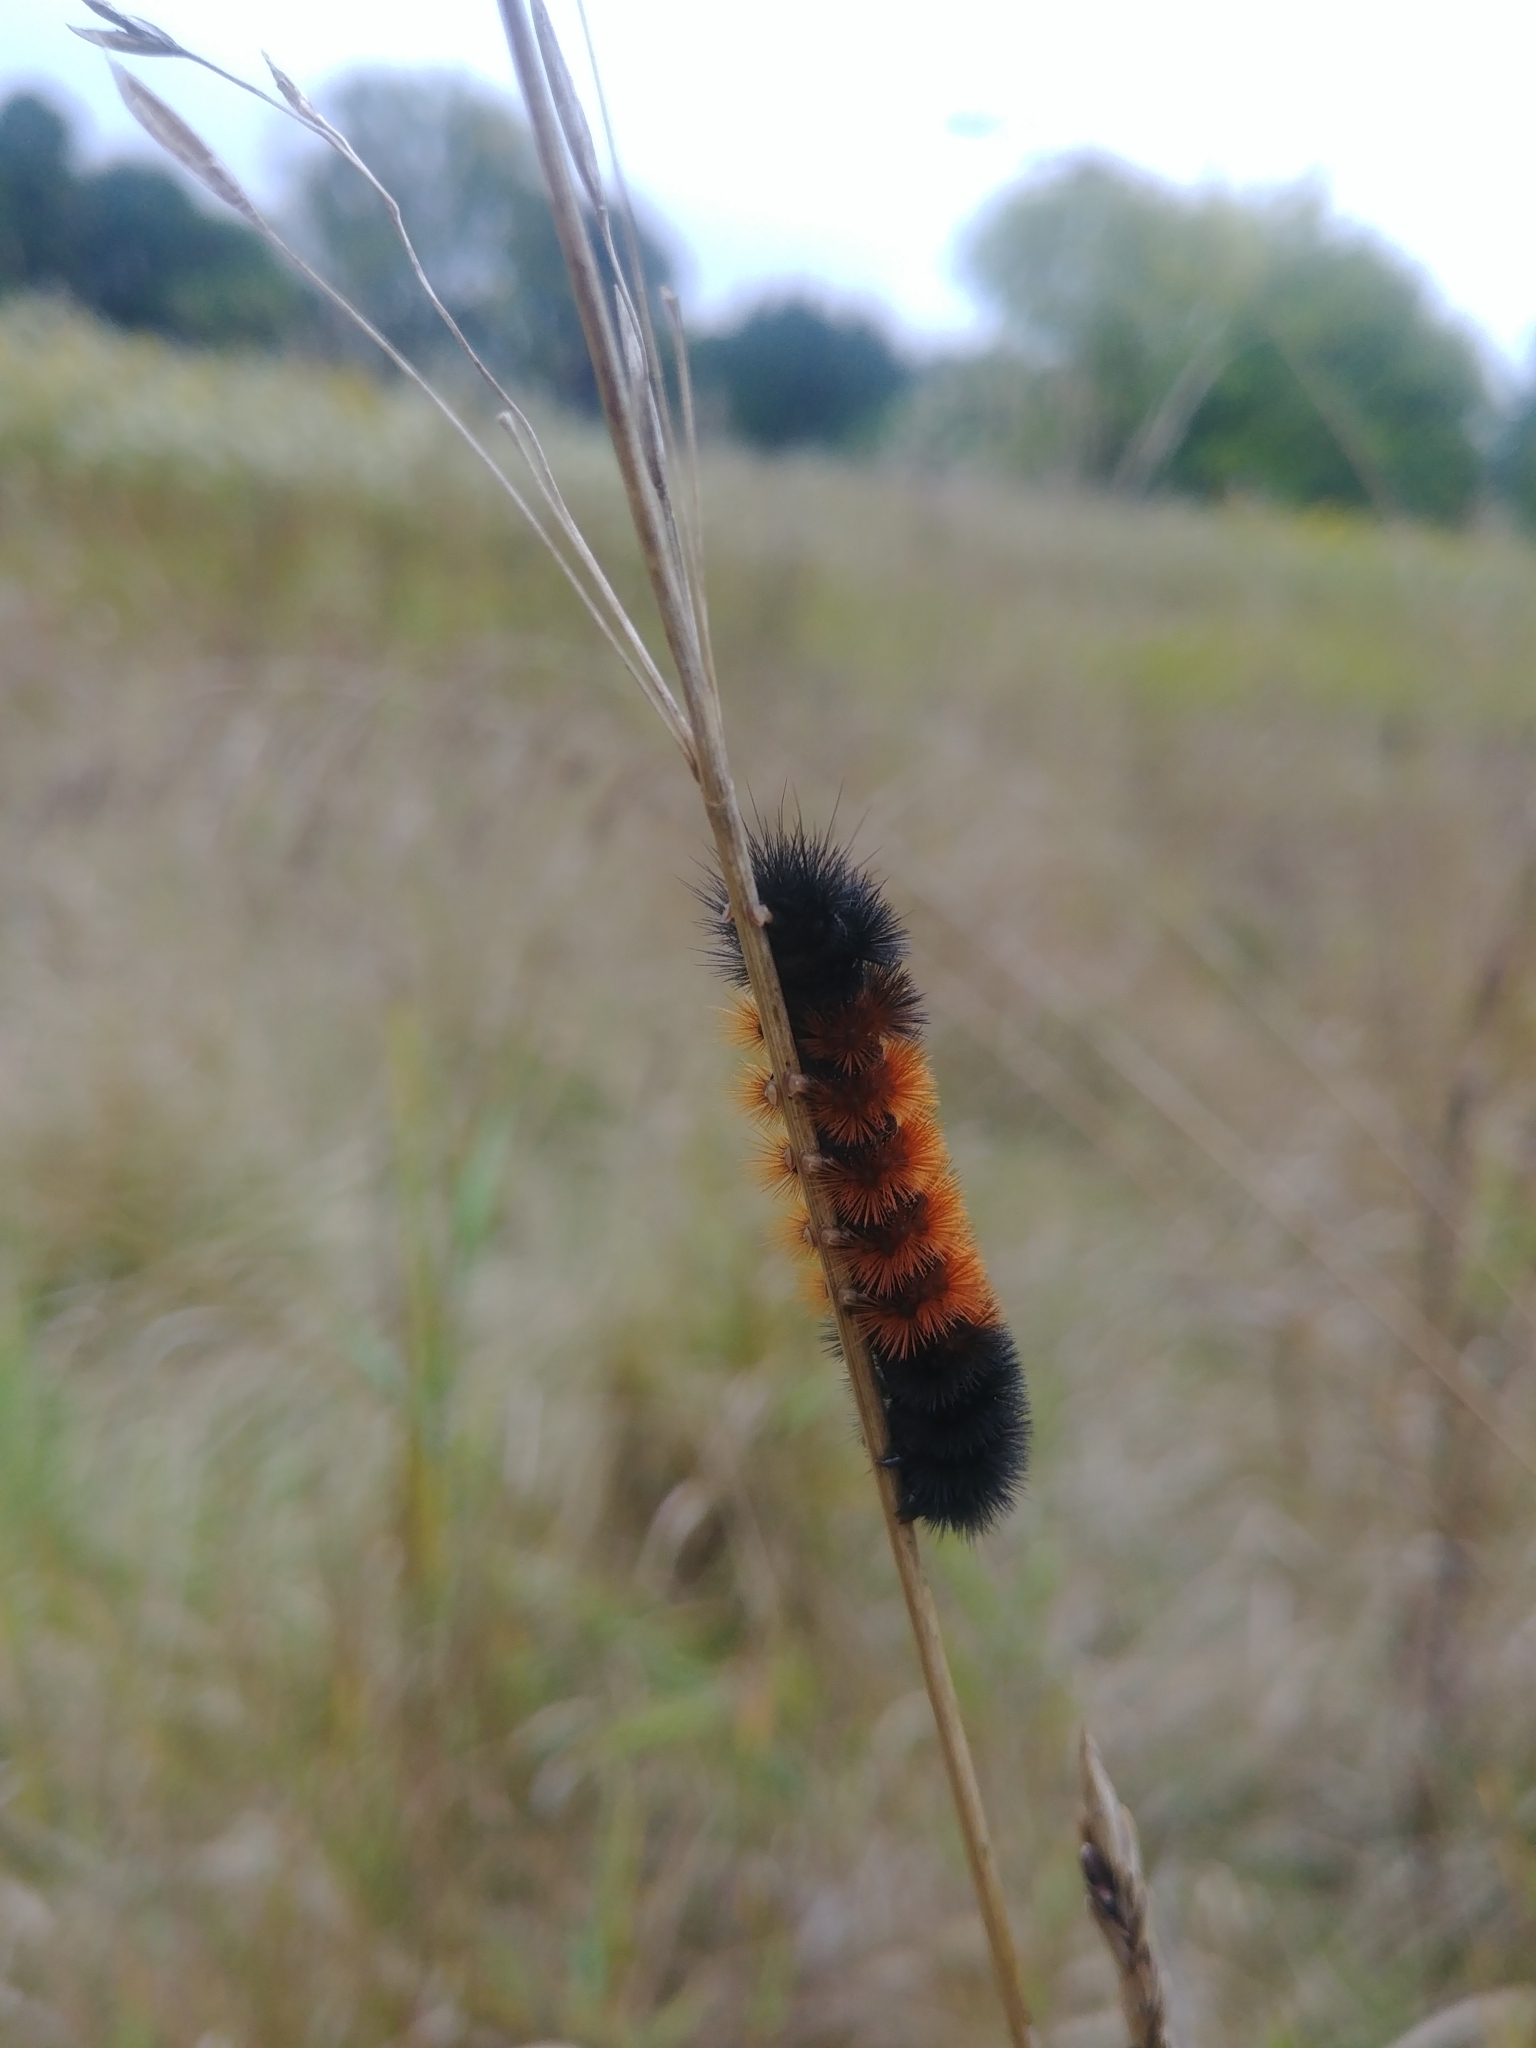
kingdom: Animalia
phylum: Arthropoda
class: Insecta
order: Lepidoptera
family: Erebidae
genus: Pyrrharctia
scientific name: Pyrrharctia isabella
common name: Isabella tiger moth
